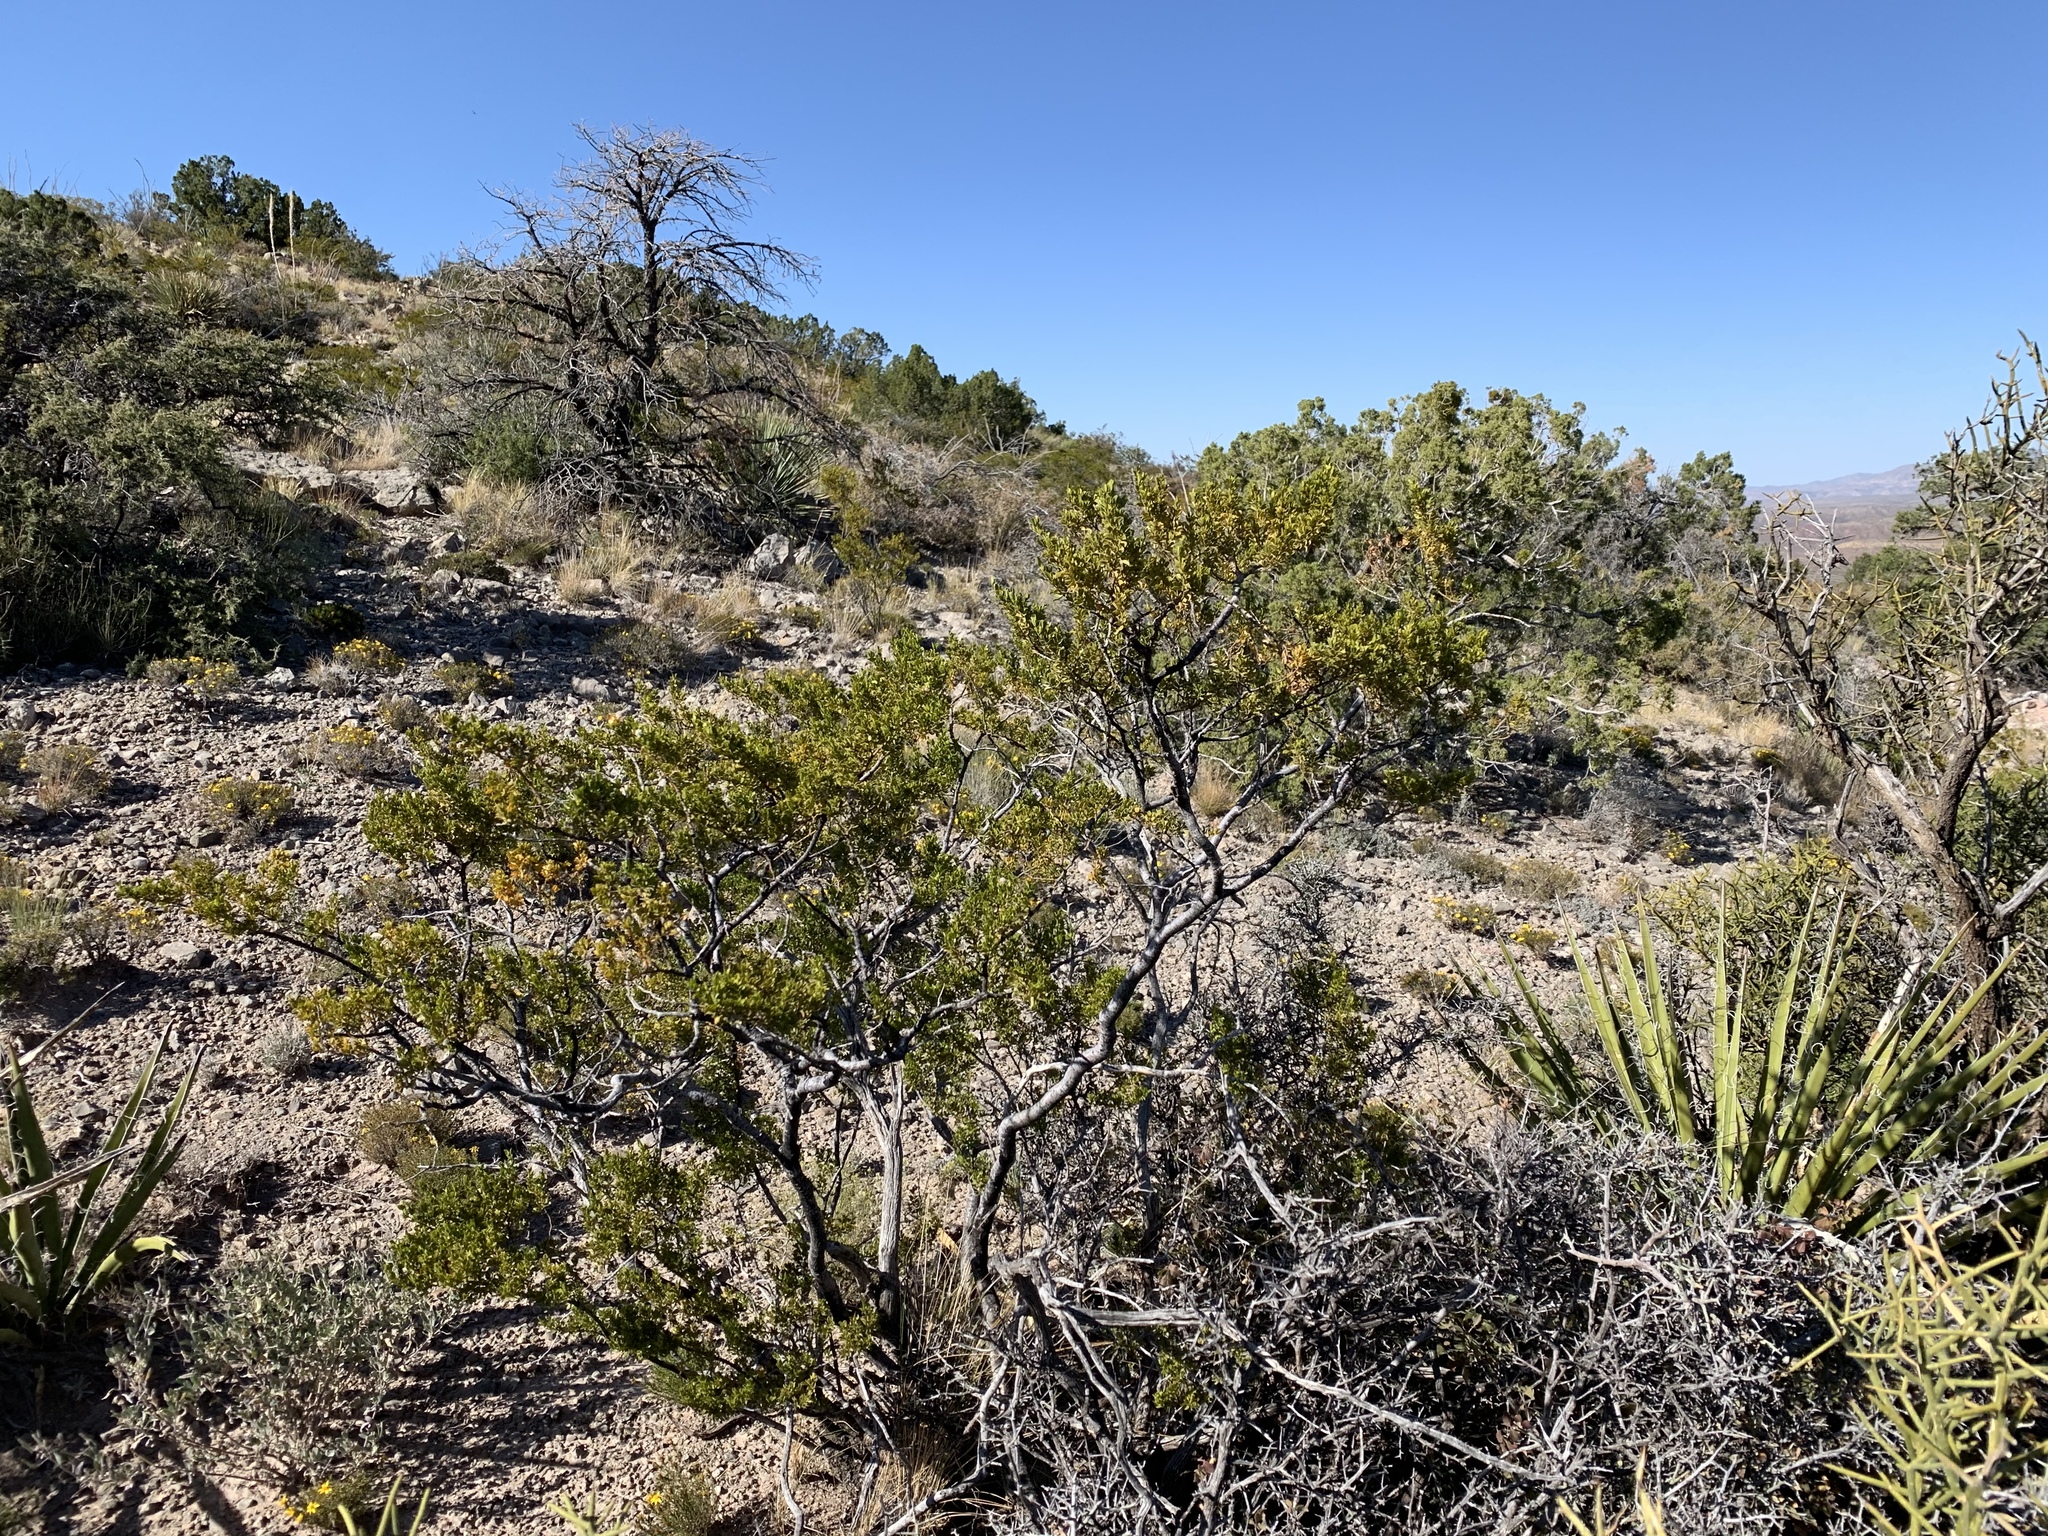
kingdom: Plantae
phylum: Tracheophyta
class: Magnoliopsida
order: Zygophyllales
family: Zygophyllaceae
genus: Larrea
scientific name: Larrea tridentata
